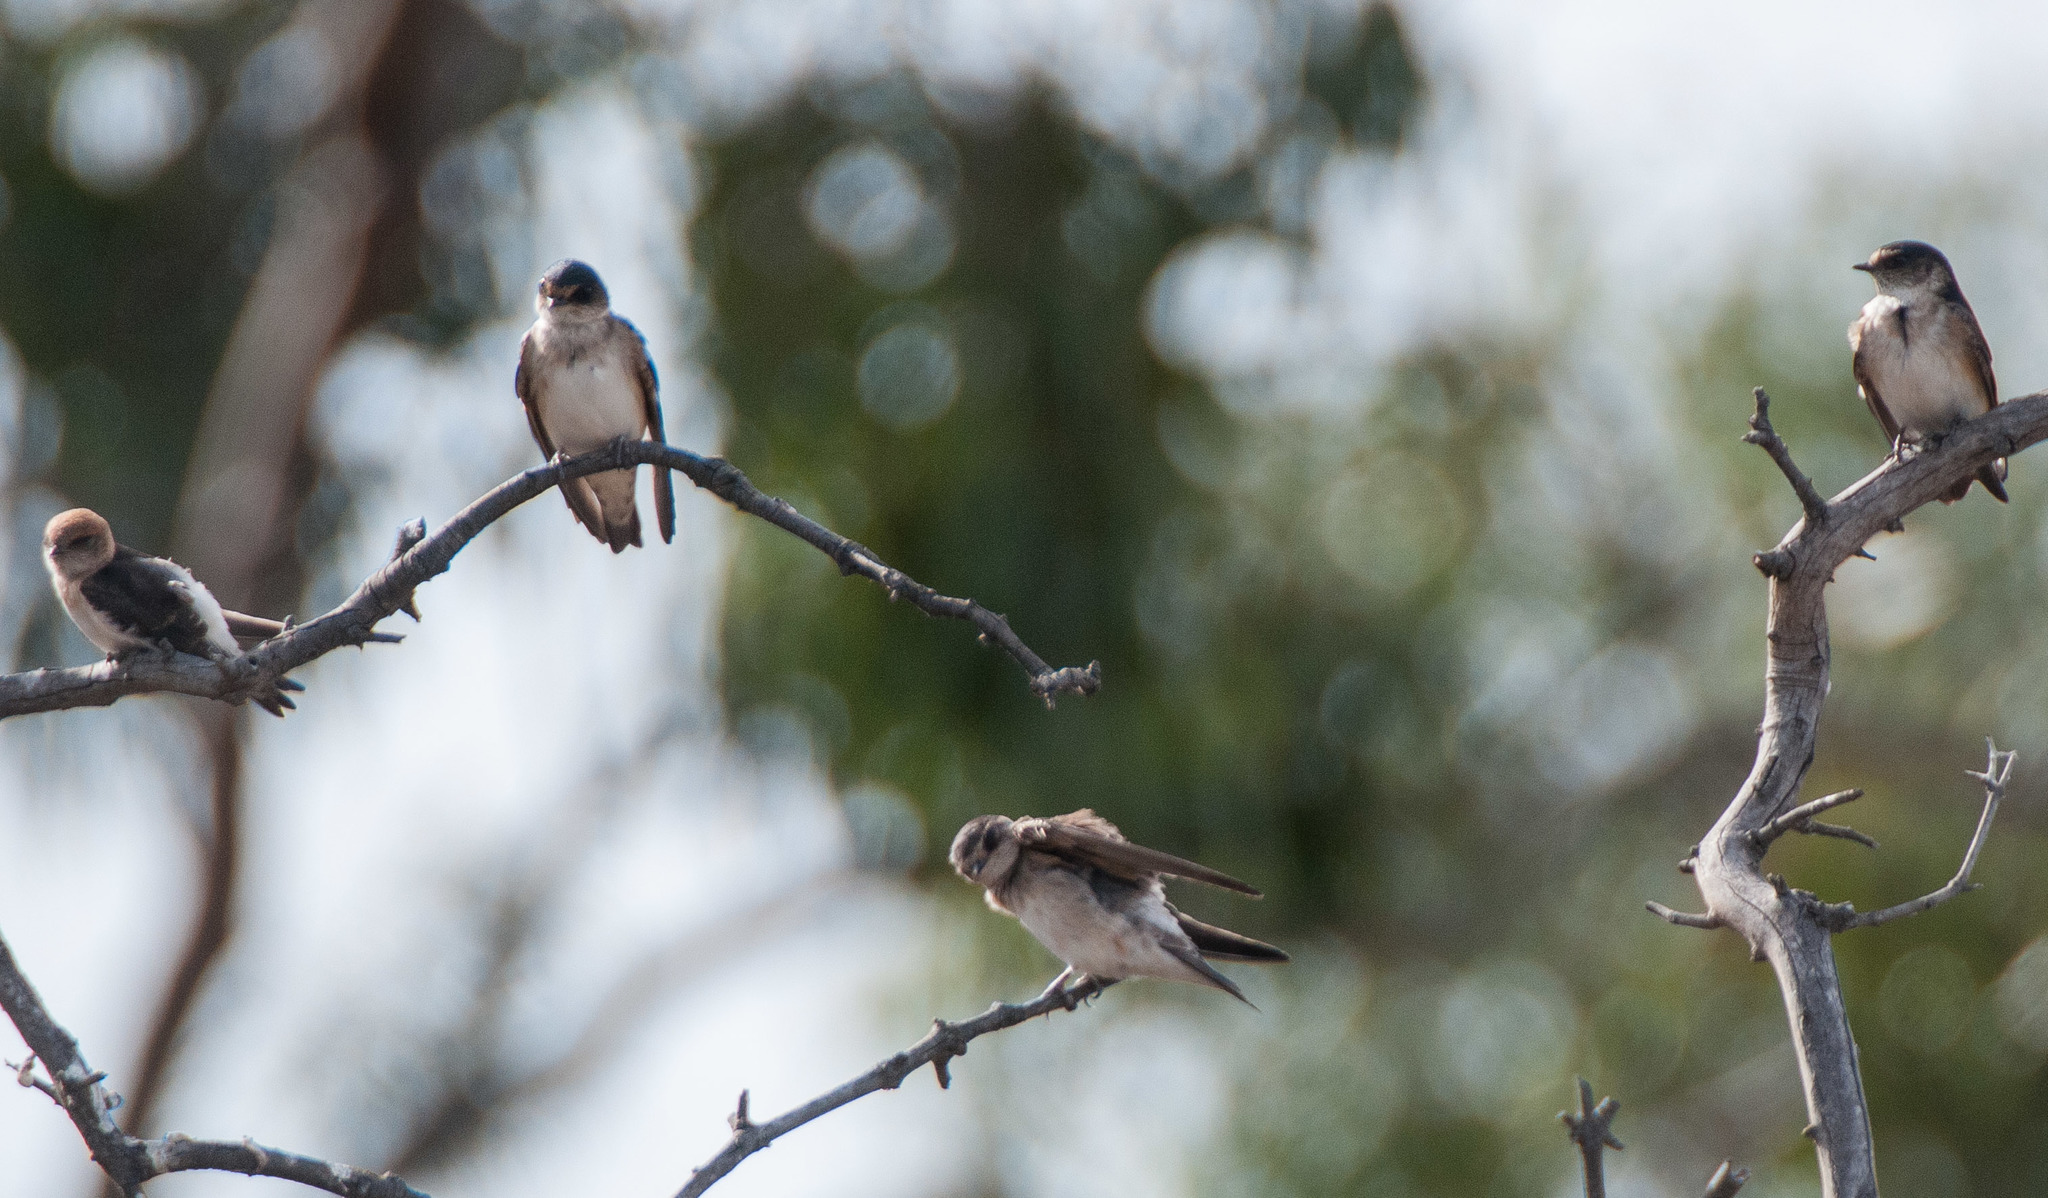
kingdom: Animalia
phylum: Chordata
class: Aves
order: Passeriformes
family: Hirundinidae
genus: Petrochelidon
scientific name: Petrochelidon nigricans
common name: Tree martin
